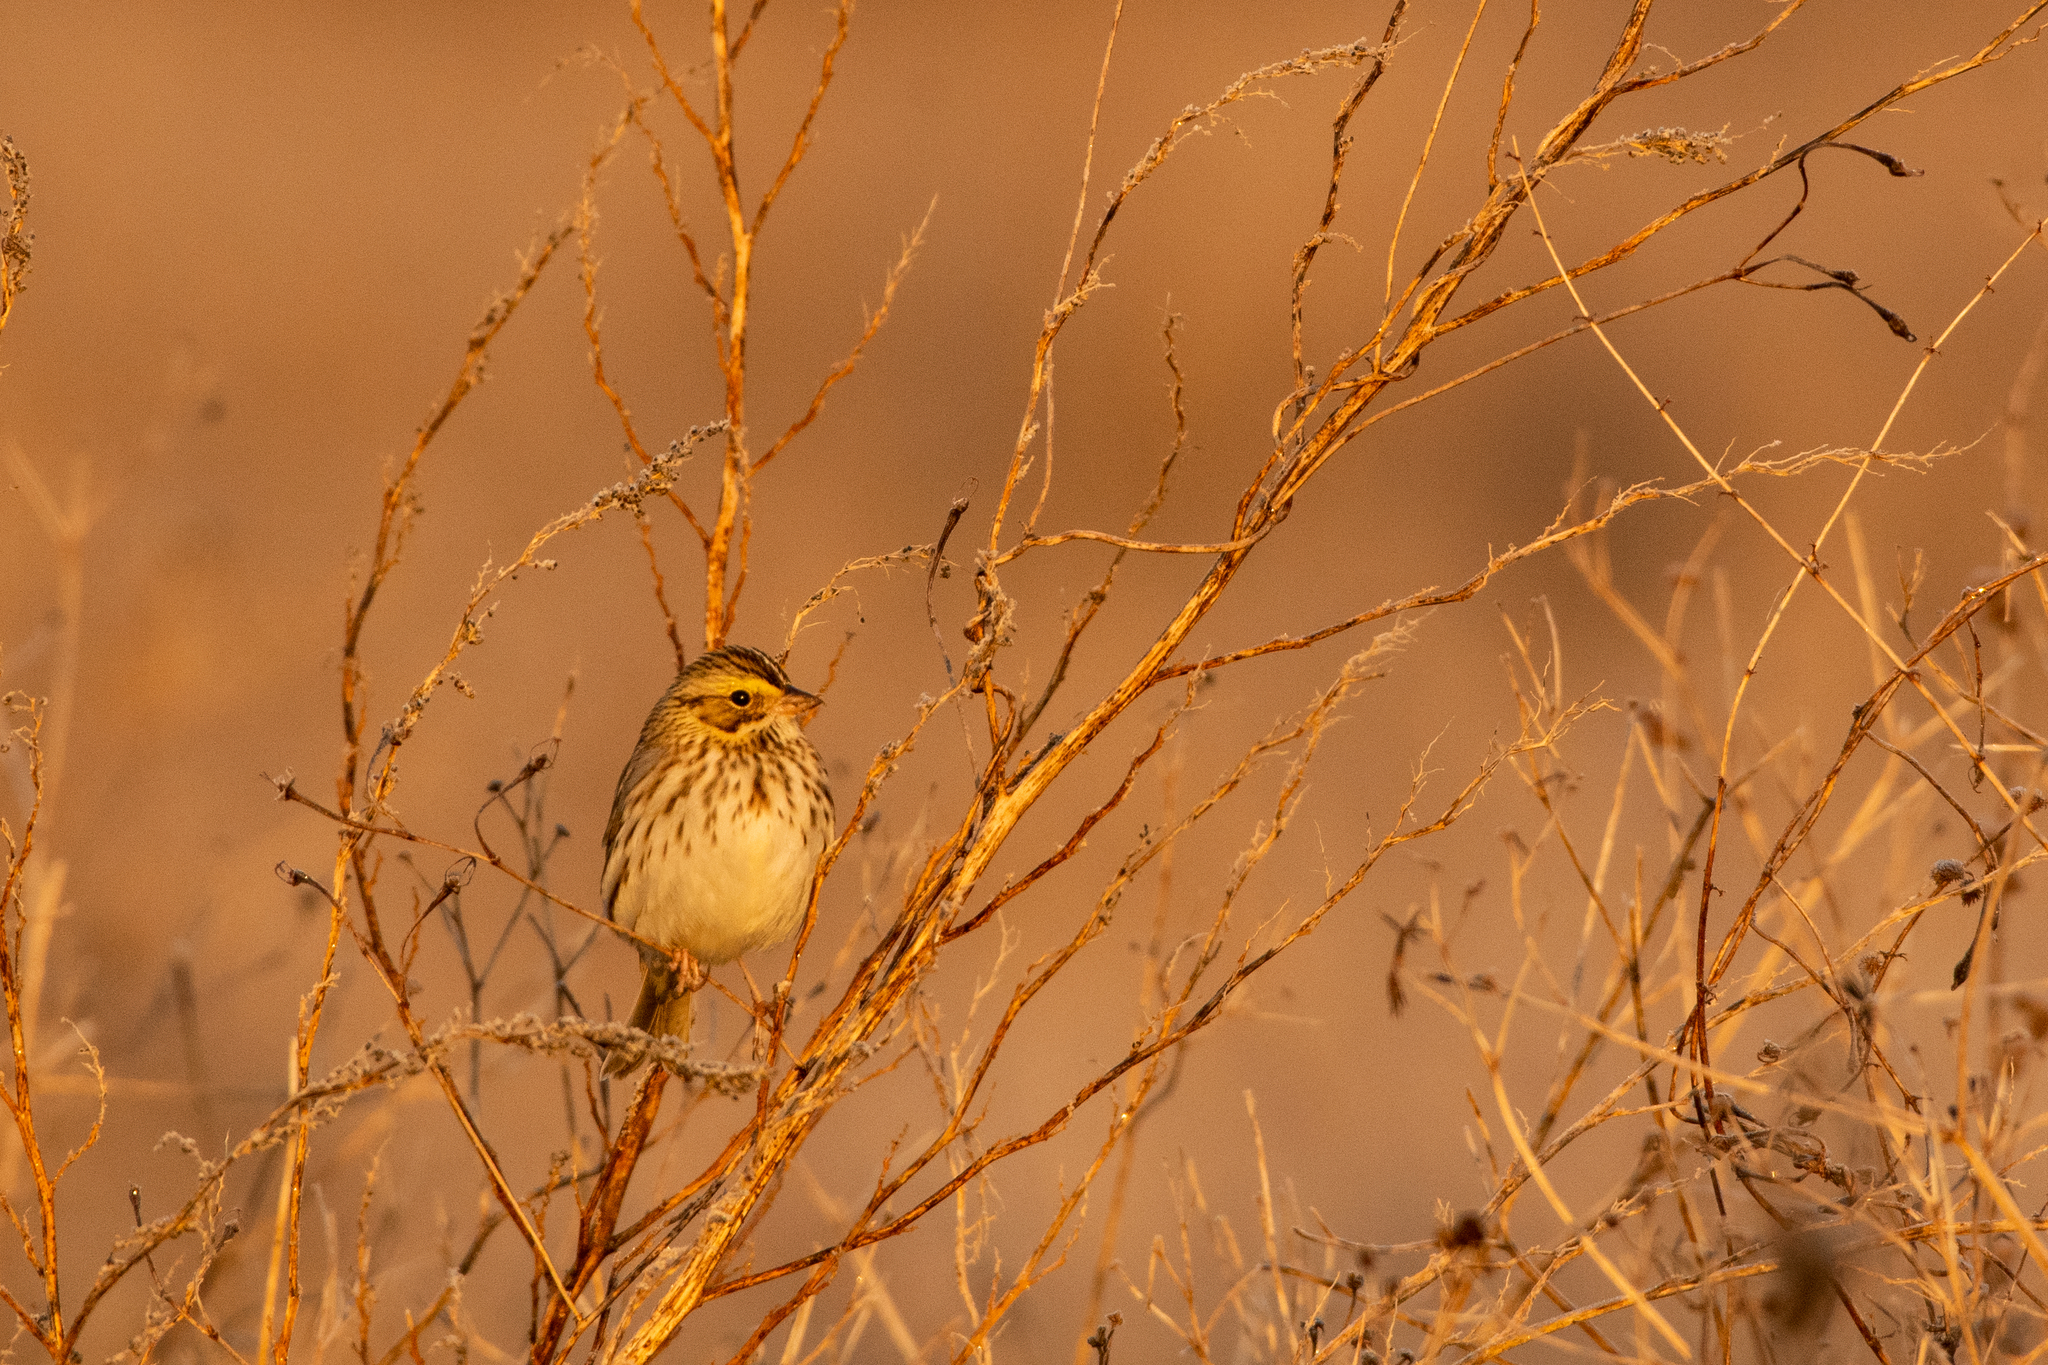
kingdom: Animalia
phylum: Chordata
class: Aves
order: Passeriformes
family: Passerellidae
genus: Passerculus
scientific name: Passerculus sandwichensis
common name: Savannah sparrow
